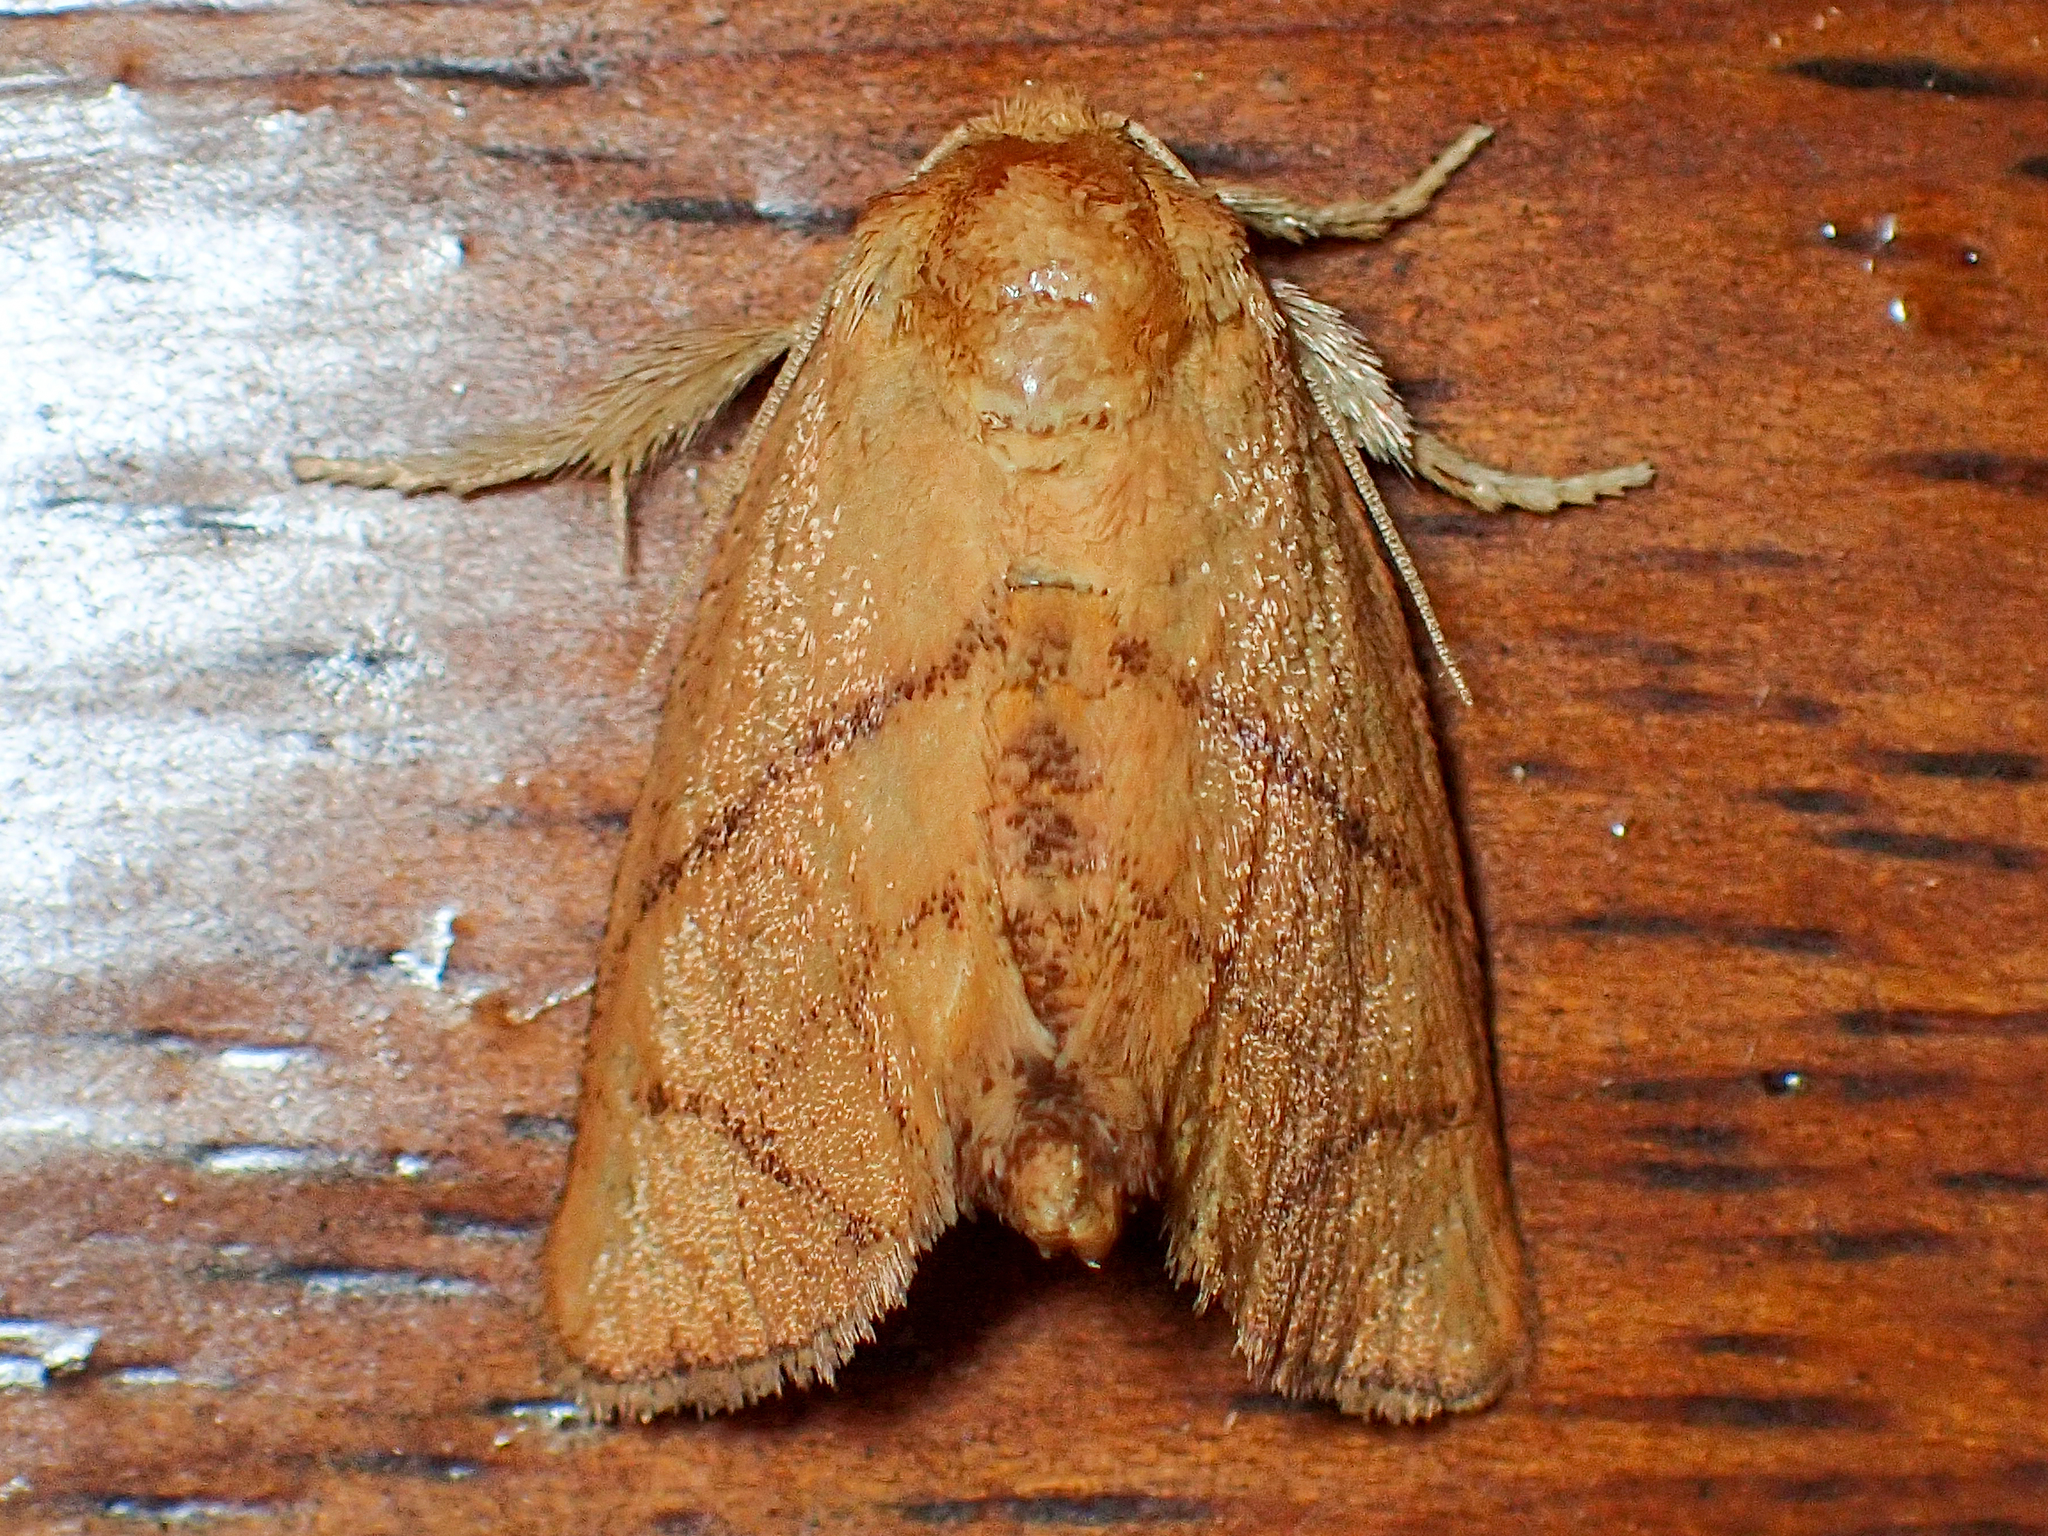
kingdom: Animalia
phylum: Arthropoda
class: Insecta
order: Lepidoptera
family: Limacodidae
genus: Apoda
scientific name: Apoda y-inversa
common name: Yellow-collared slug moth
